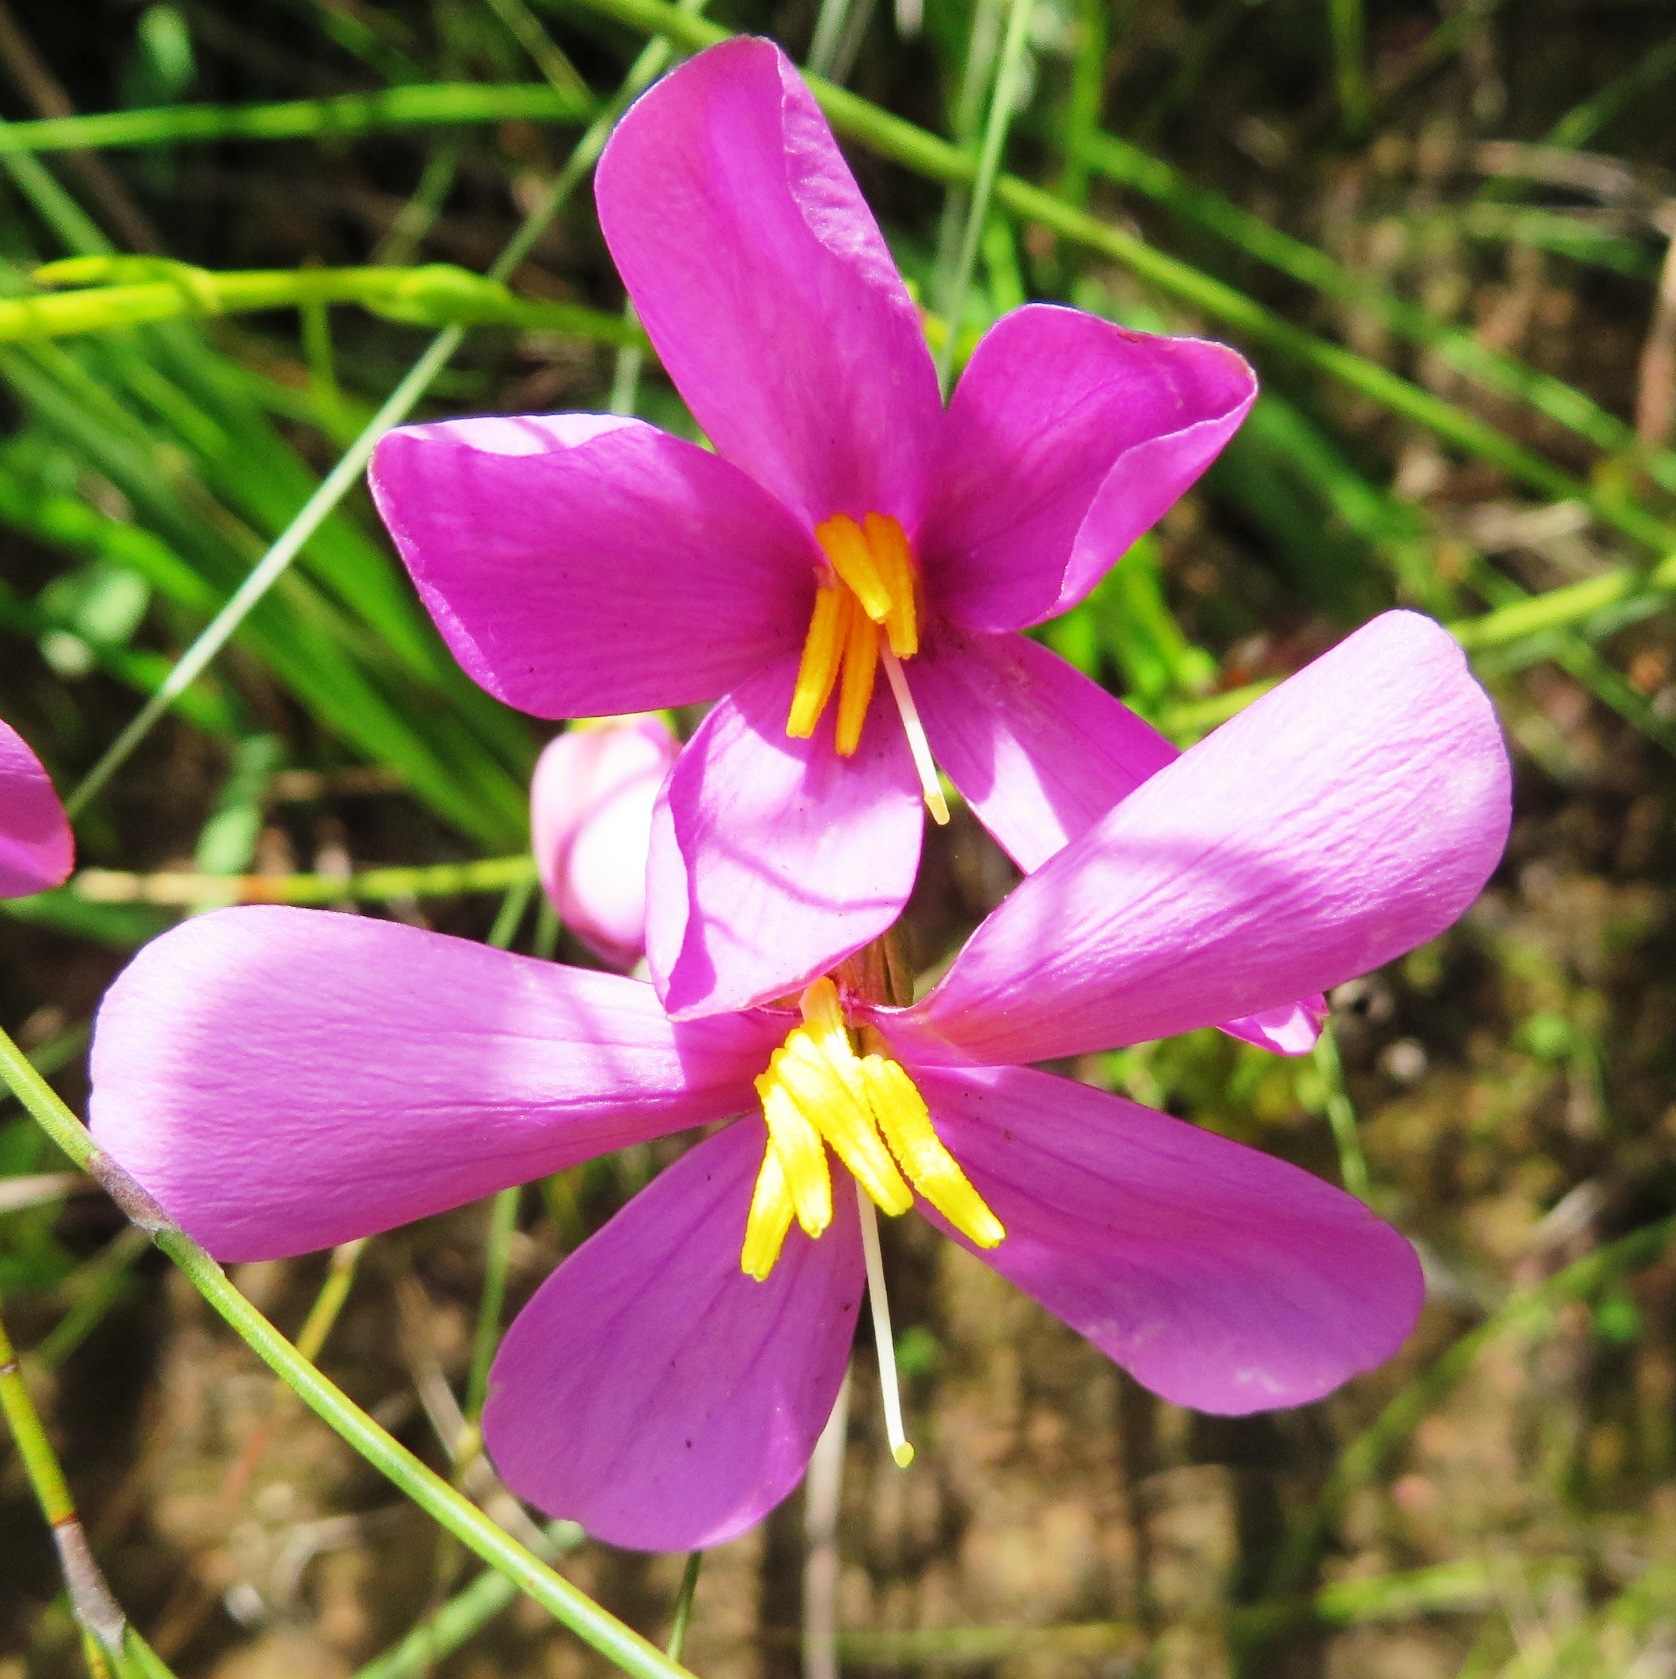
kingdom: Plantae
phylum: Tracheophyta
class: Magnoliopsida
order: Gentianales
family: Gentianaceae
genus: Chironia
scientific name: Chironia jasminoides
